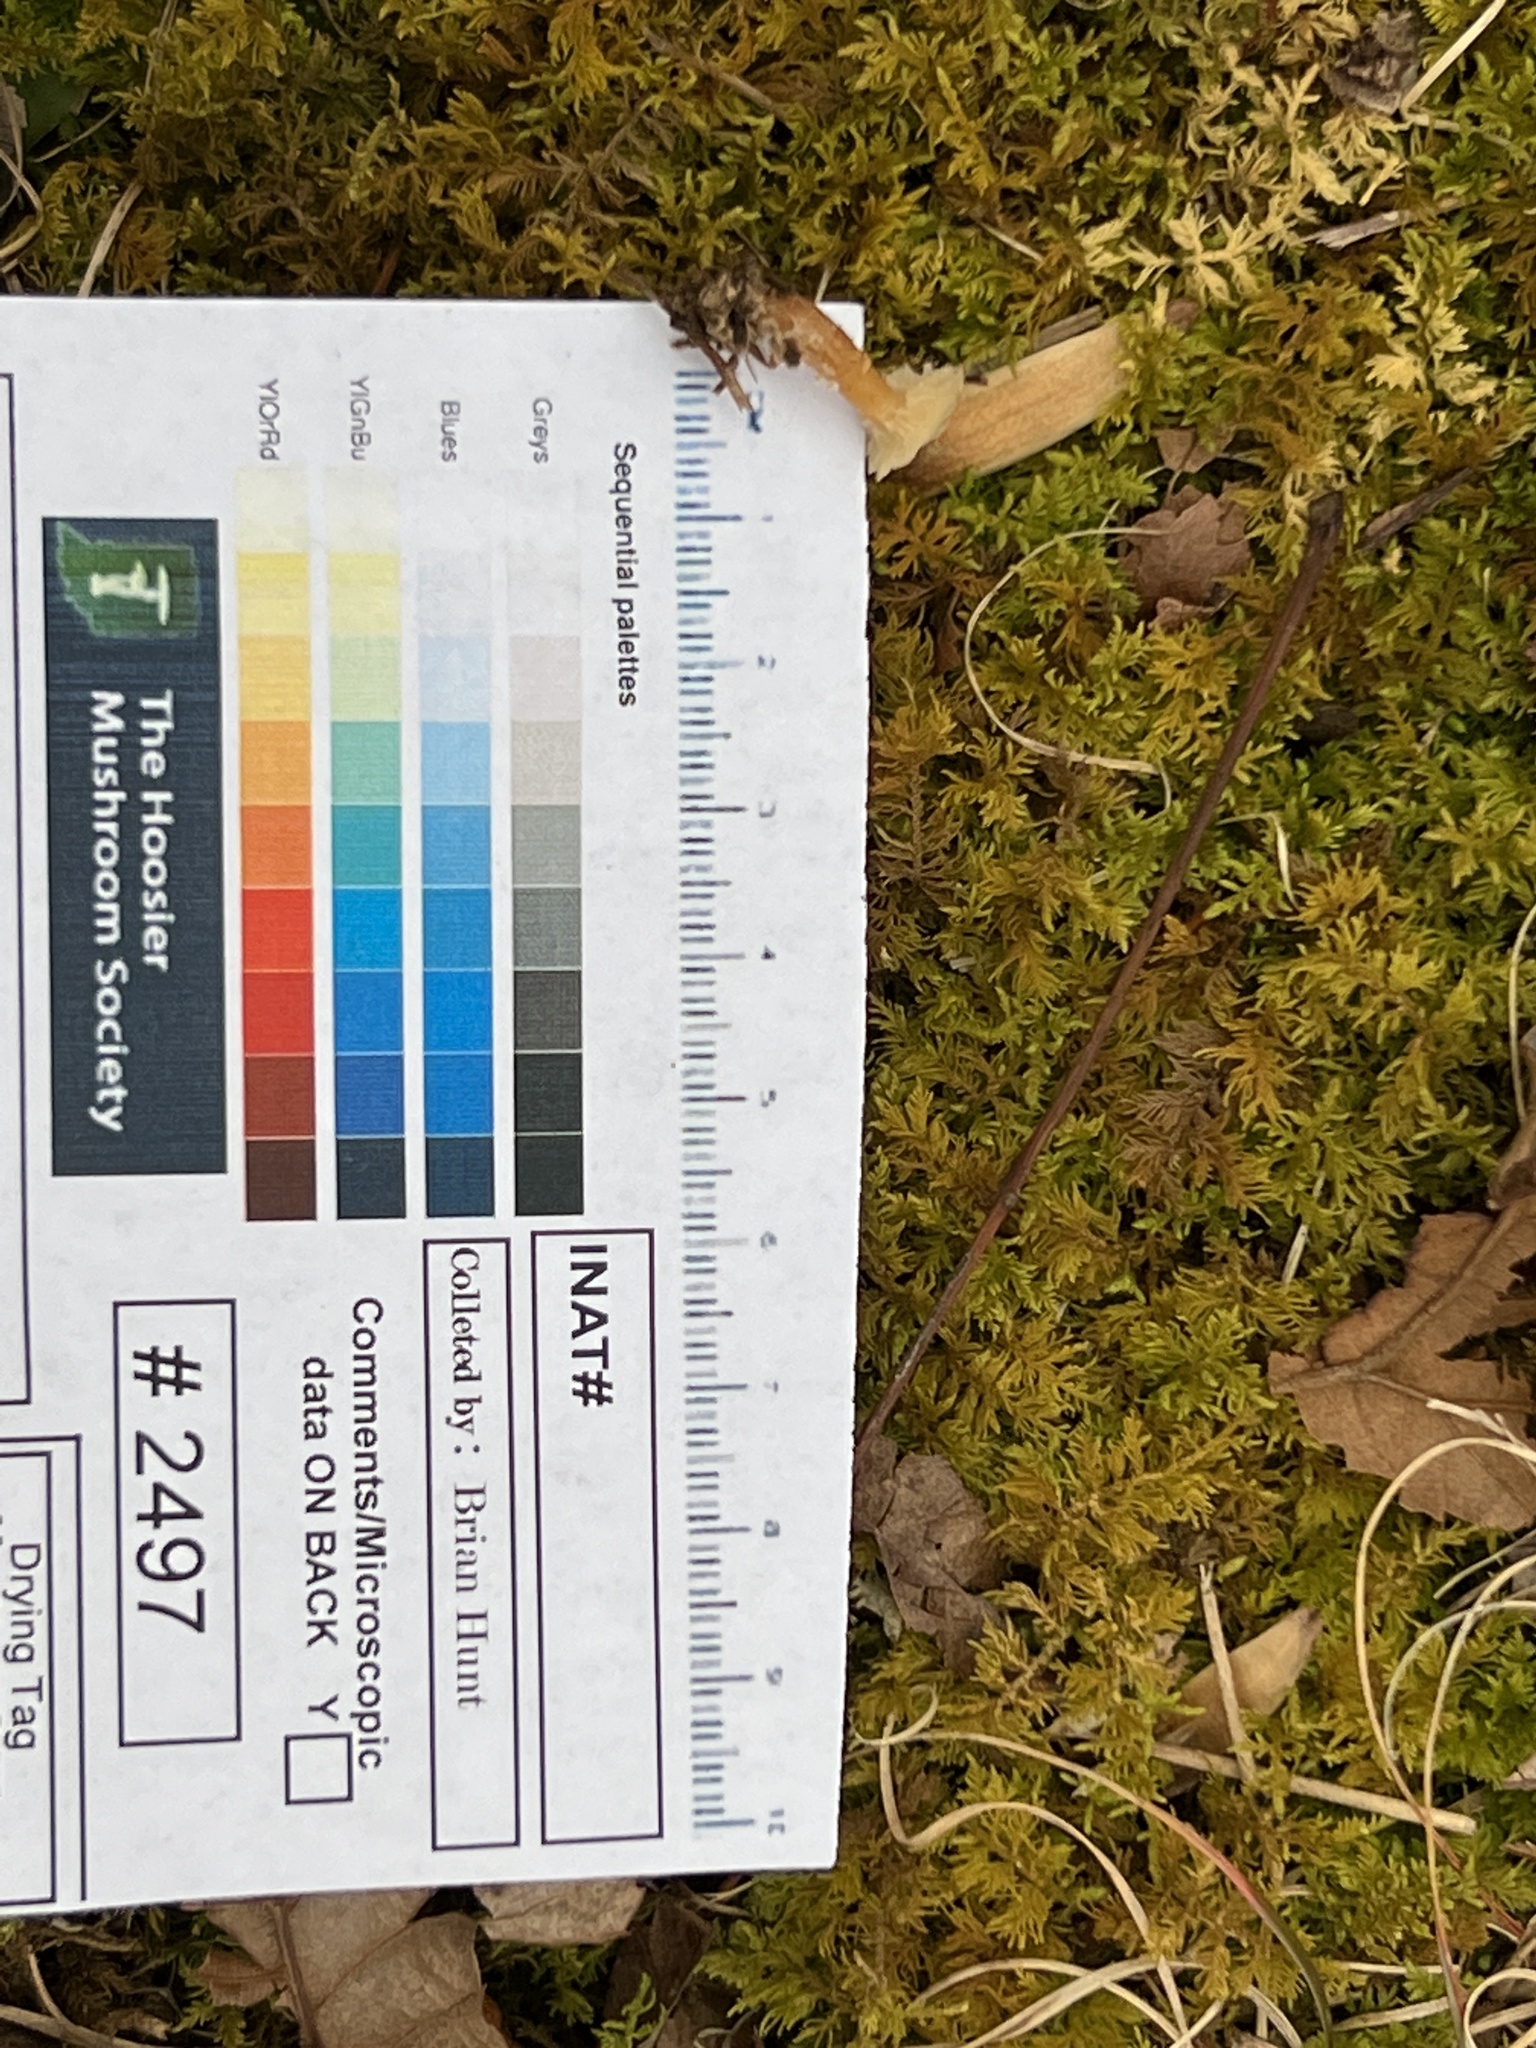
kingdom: Fungi
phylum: Basidiomycota
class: Agaricomycetes
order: Agaricales
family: Tricholomataceae
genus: Cystoderma
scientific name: Cystoderma amianthinum
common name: Earthy powdercap
